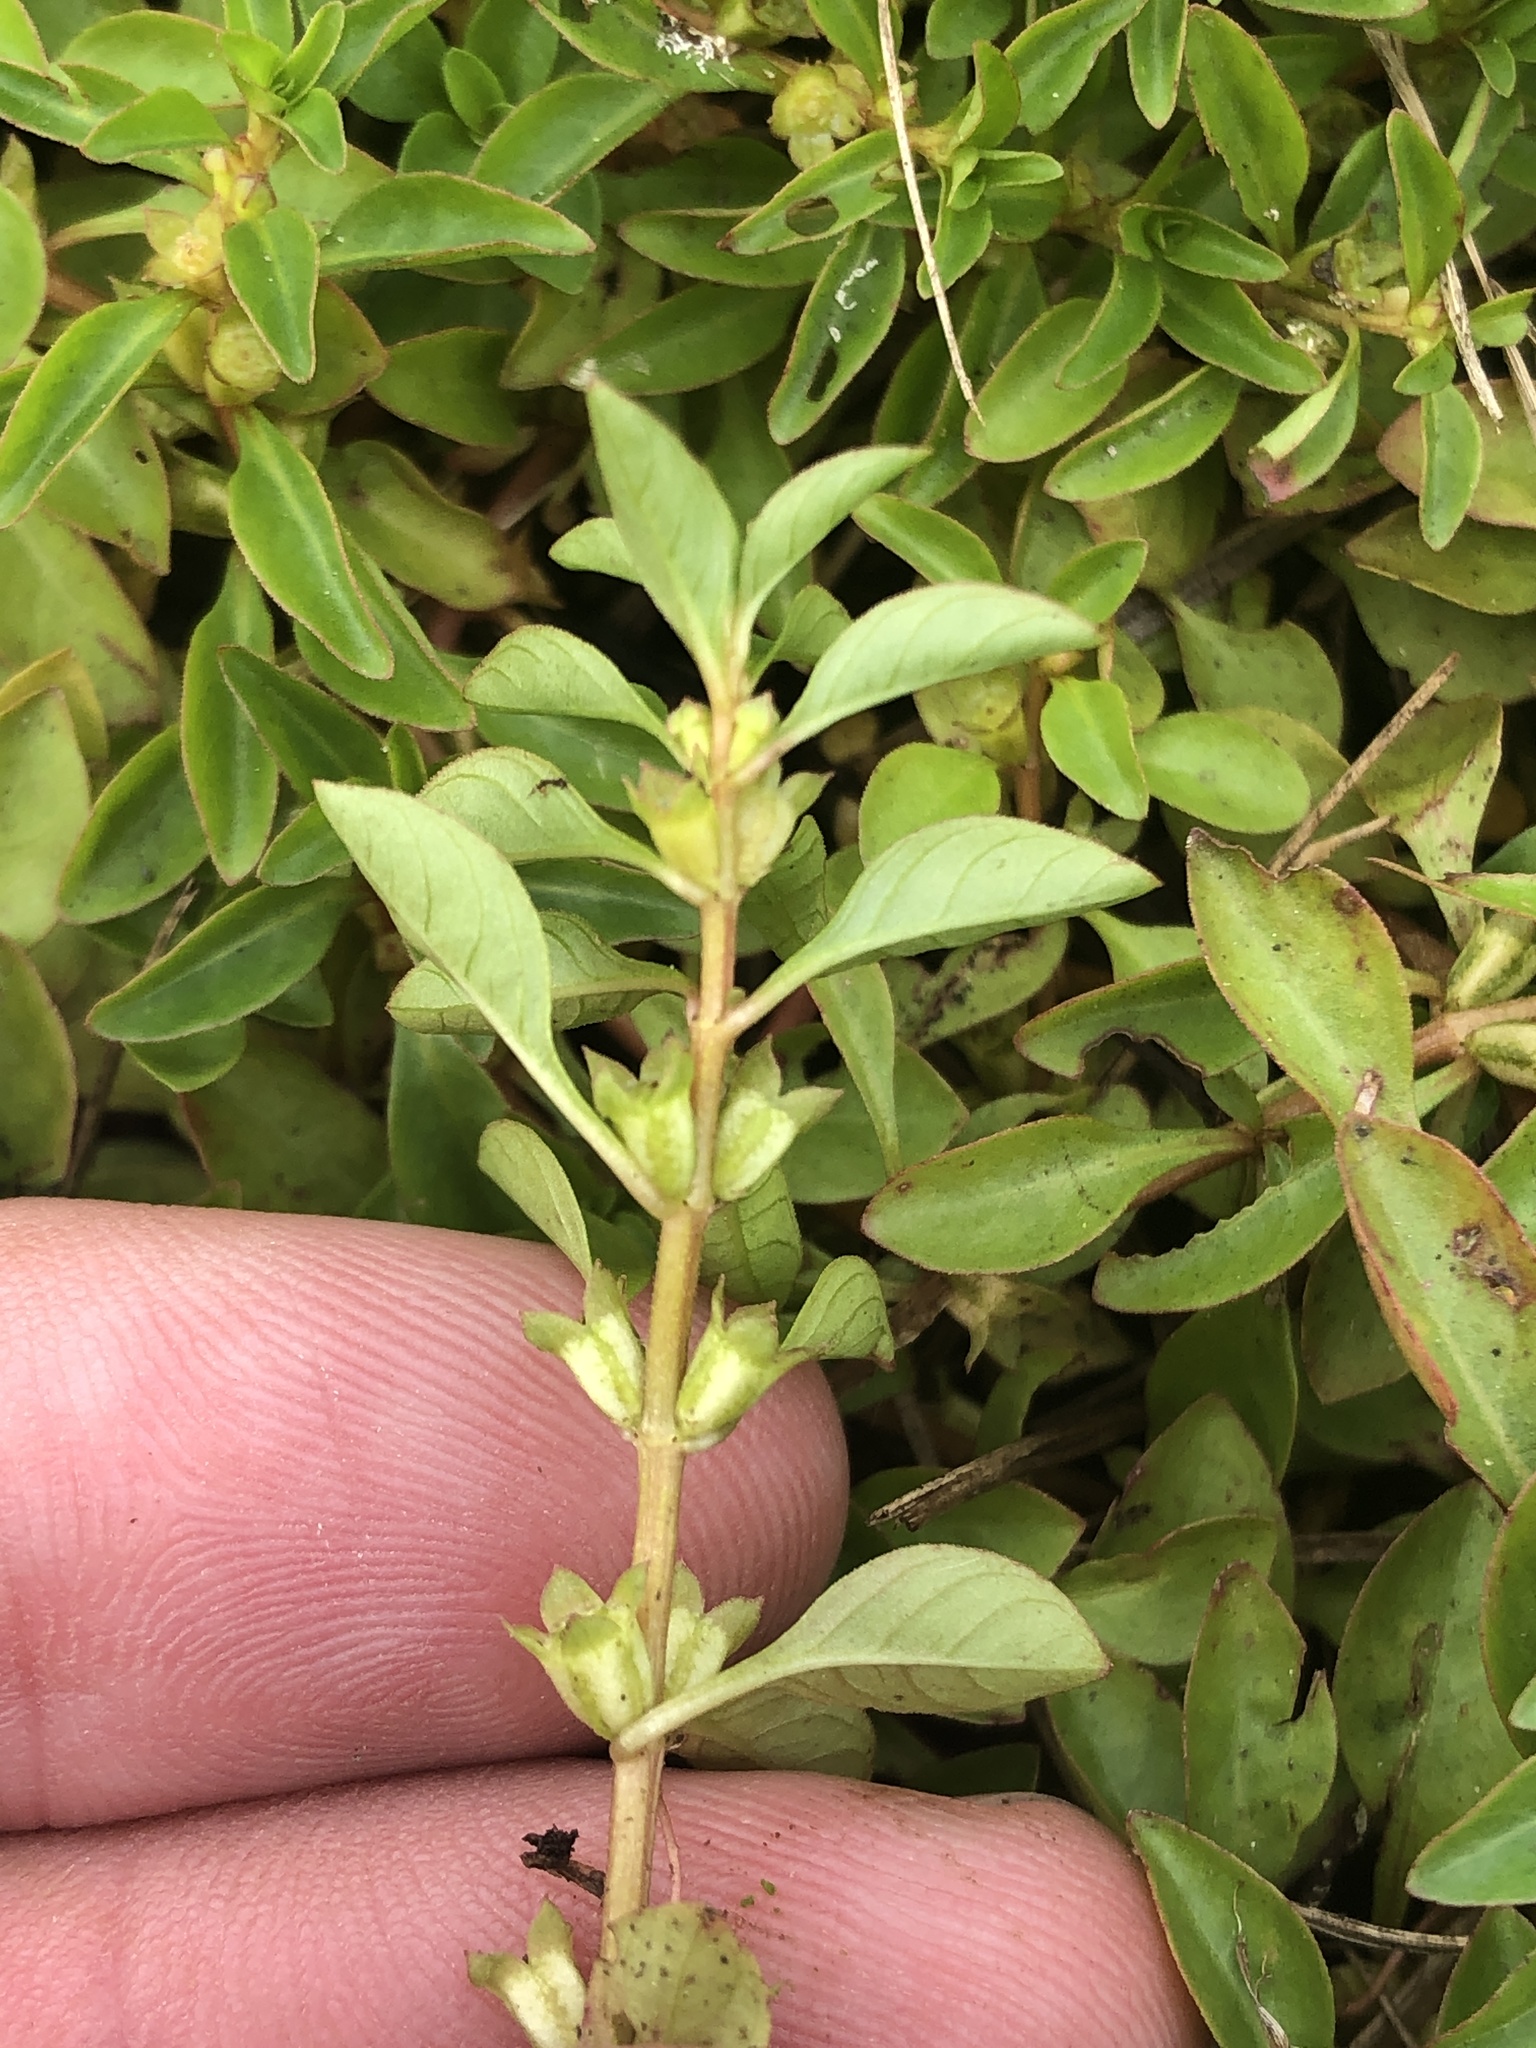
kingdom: Plantae
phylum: Tracheophyta
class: Magnoliopsida
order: Myrtales
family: Onagraceae
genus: Ludwigia
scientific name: Ludwigia palustris
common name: Hampshire-purslane
